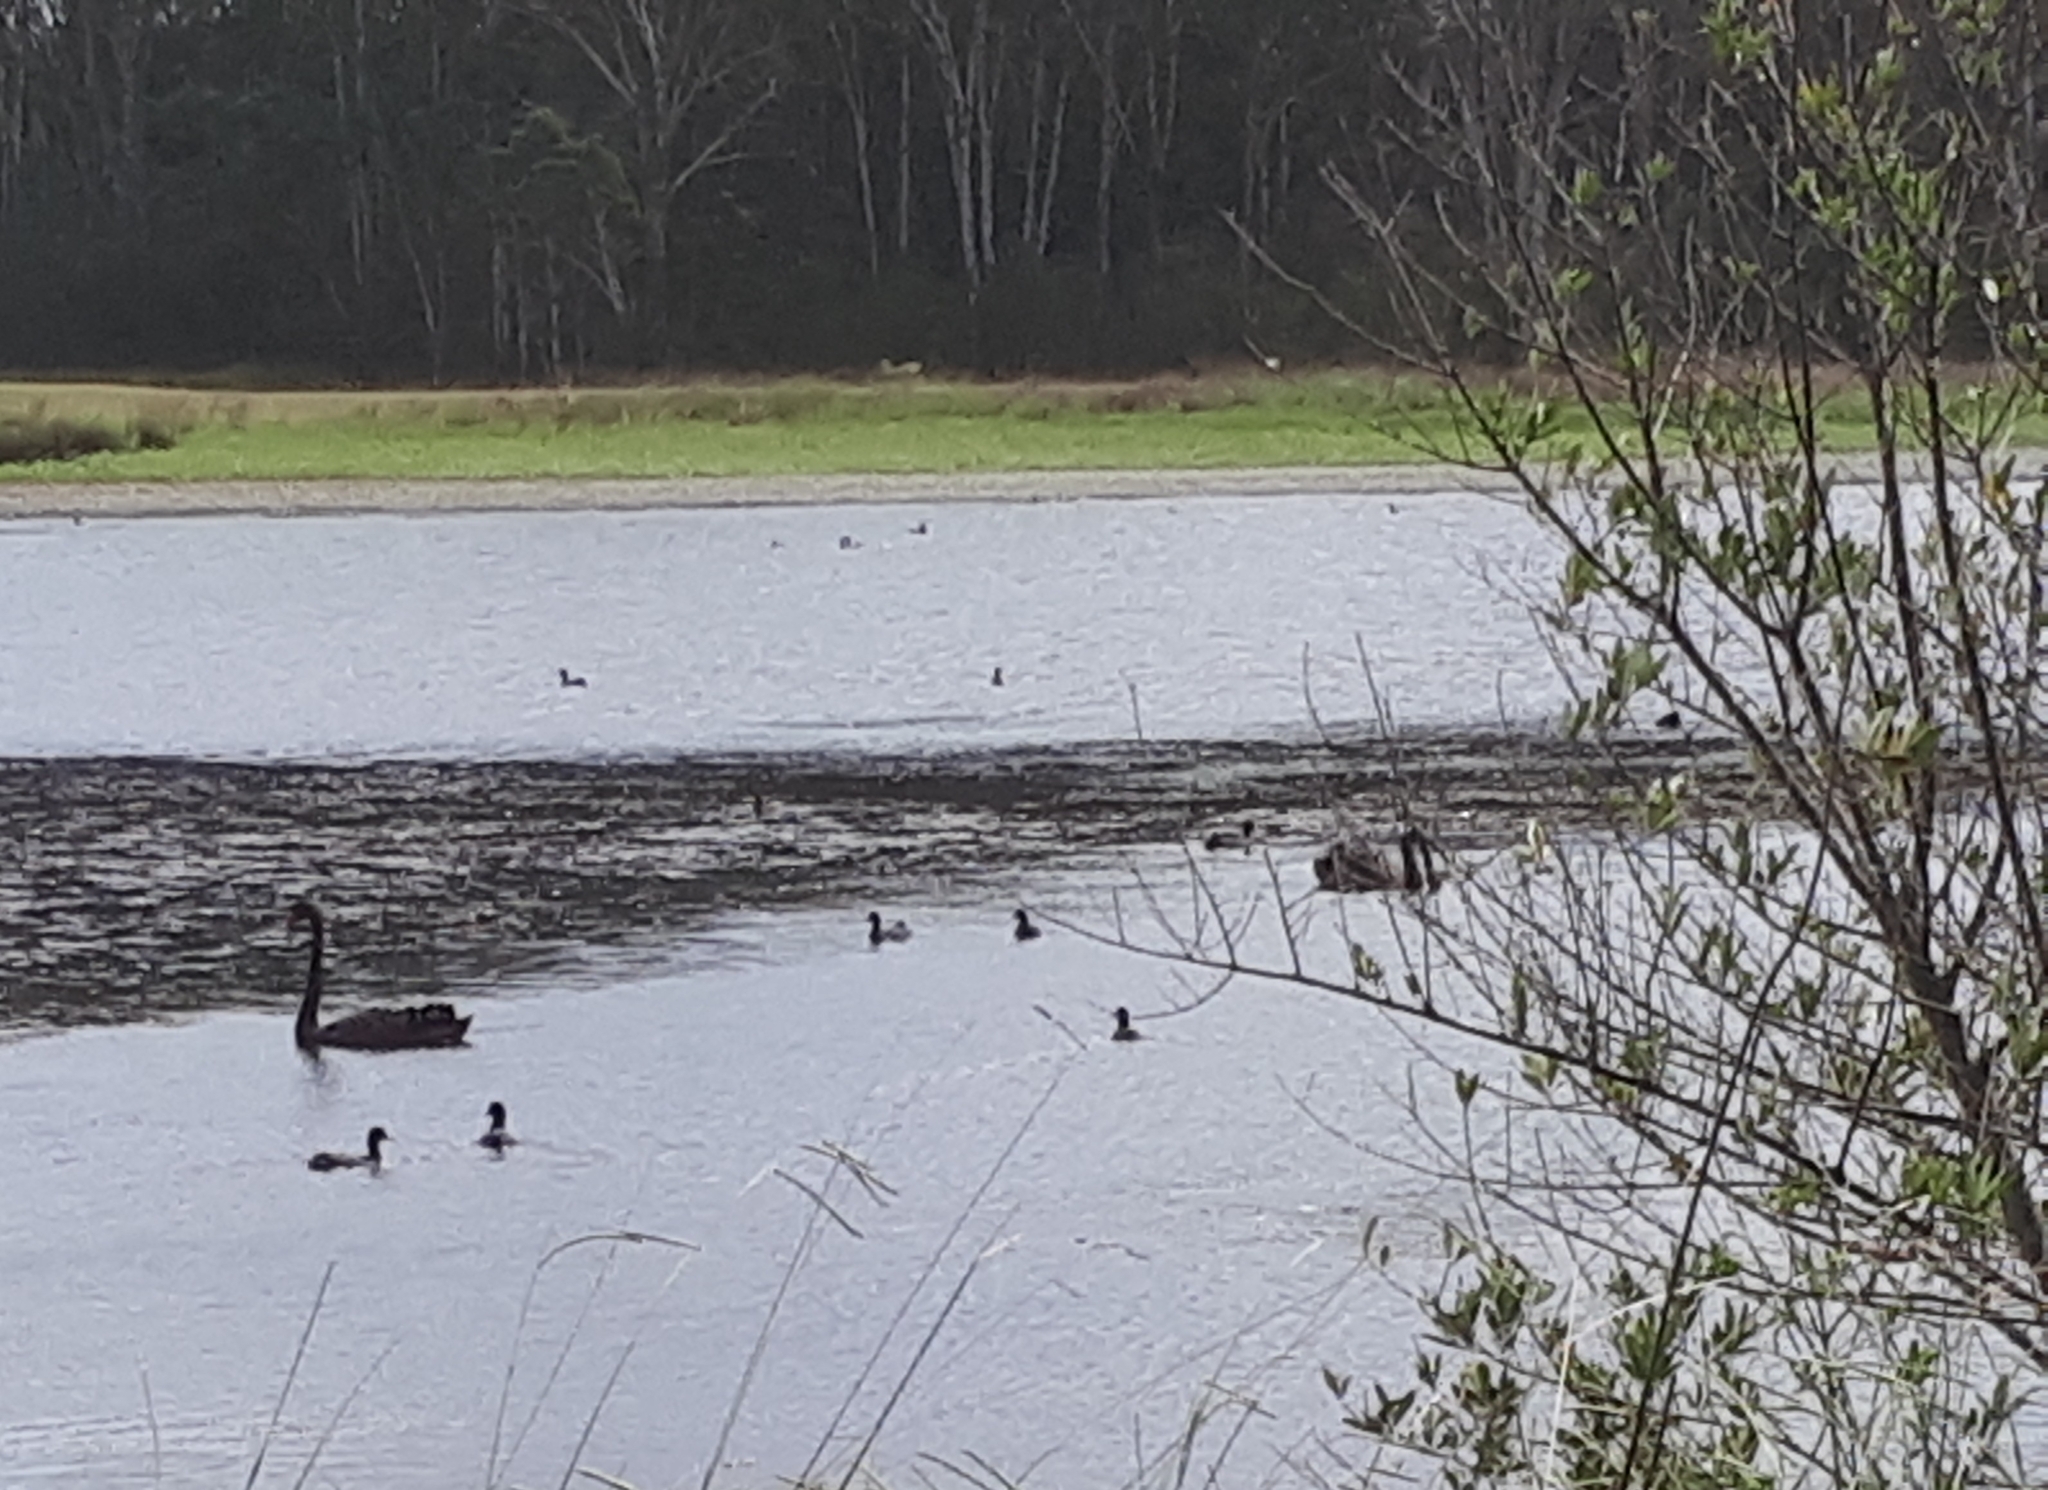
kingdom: Animalia
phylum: Chordata
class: Aves
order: Anseriformes
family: Anatidae
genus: Cygnus
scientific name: Cygnus atratus
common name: Black swan
